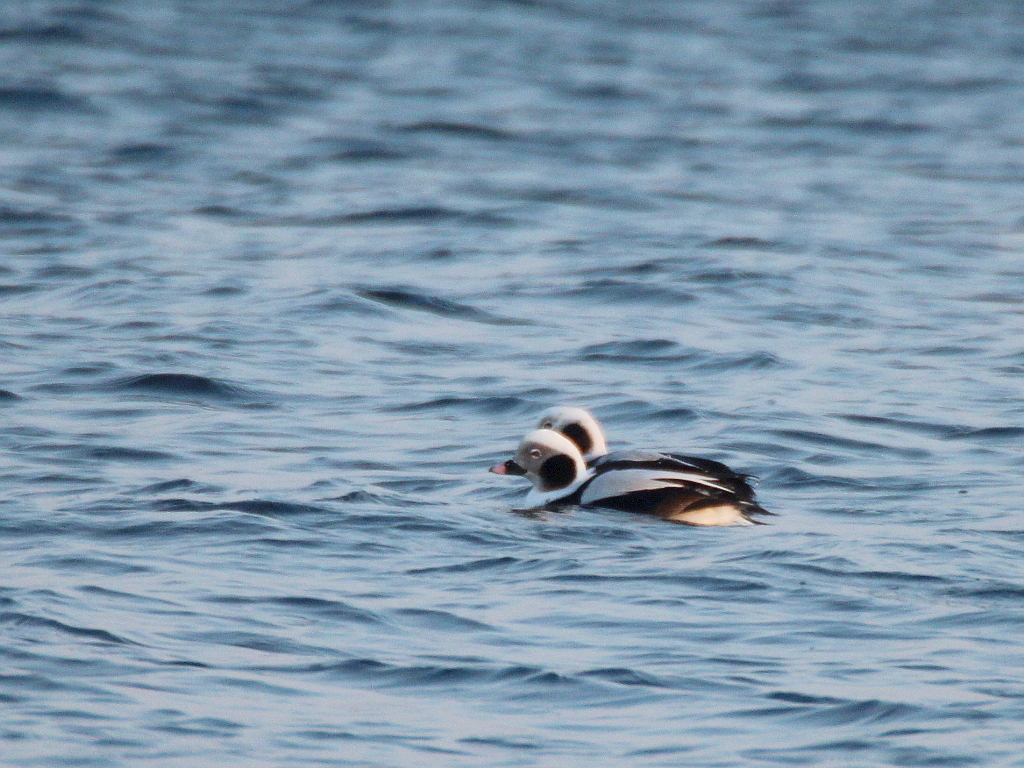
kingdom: Animalia
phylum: Chordata
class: Aves
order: Anseriformes
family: Anatidae
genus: Clangula
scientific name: Clangula hyemalis
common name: Long-tailed duck
